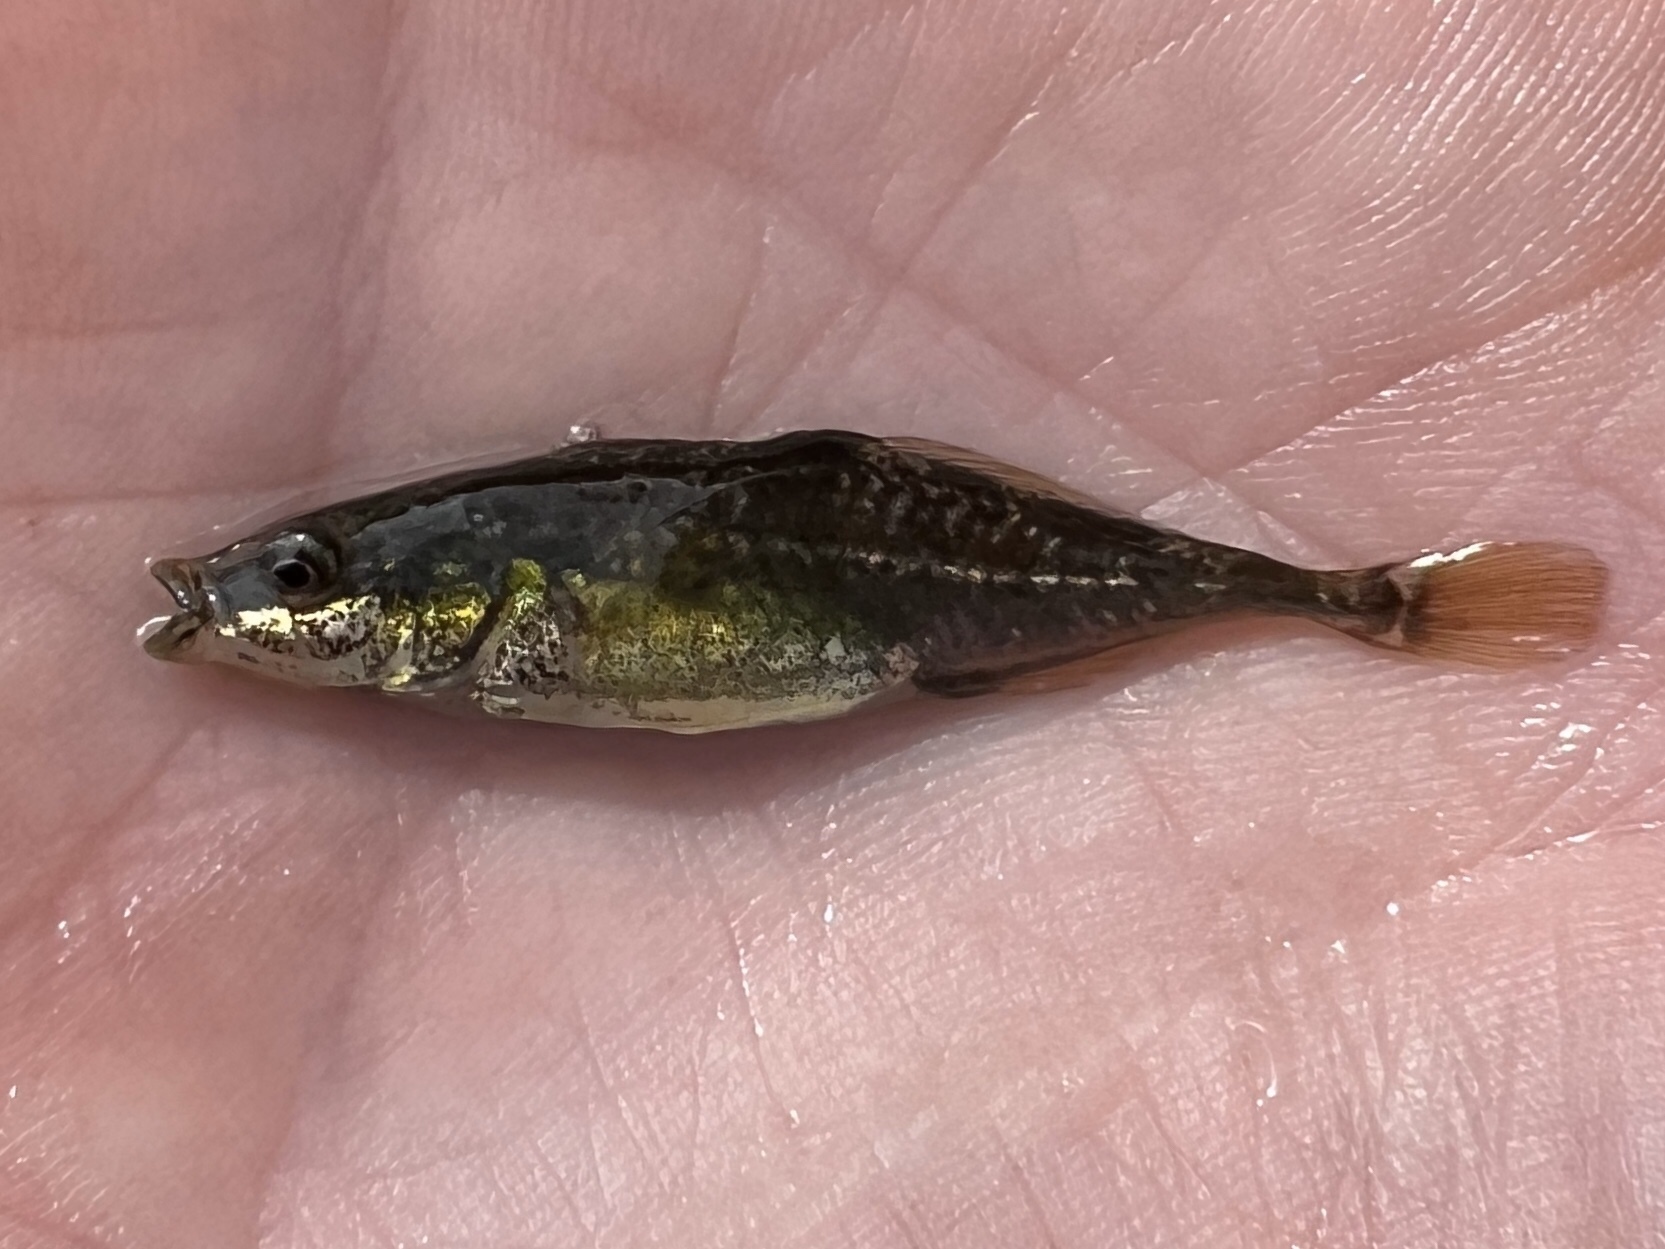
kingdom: Animalia
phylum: Chordata
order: Gasterosteiformes
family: Gasterosteidae
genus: Apeltes
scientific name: Apeltes quadracus
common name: Fourspine stickleback
